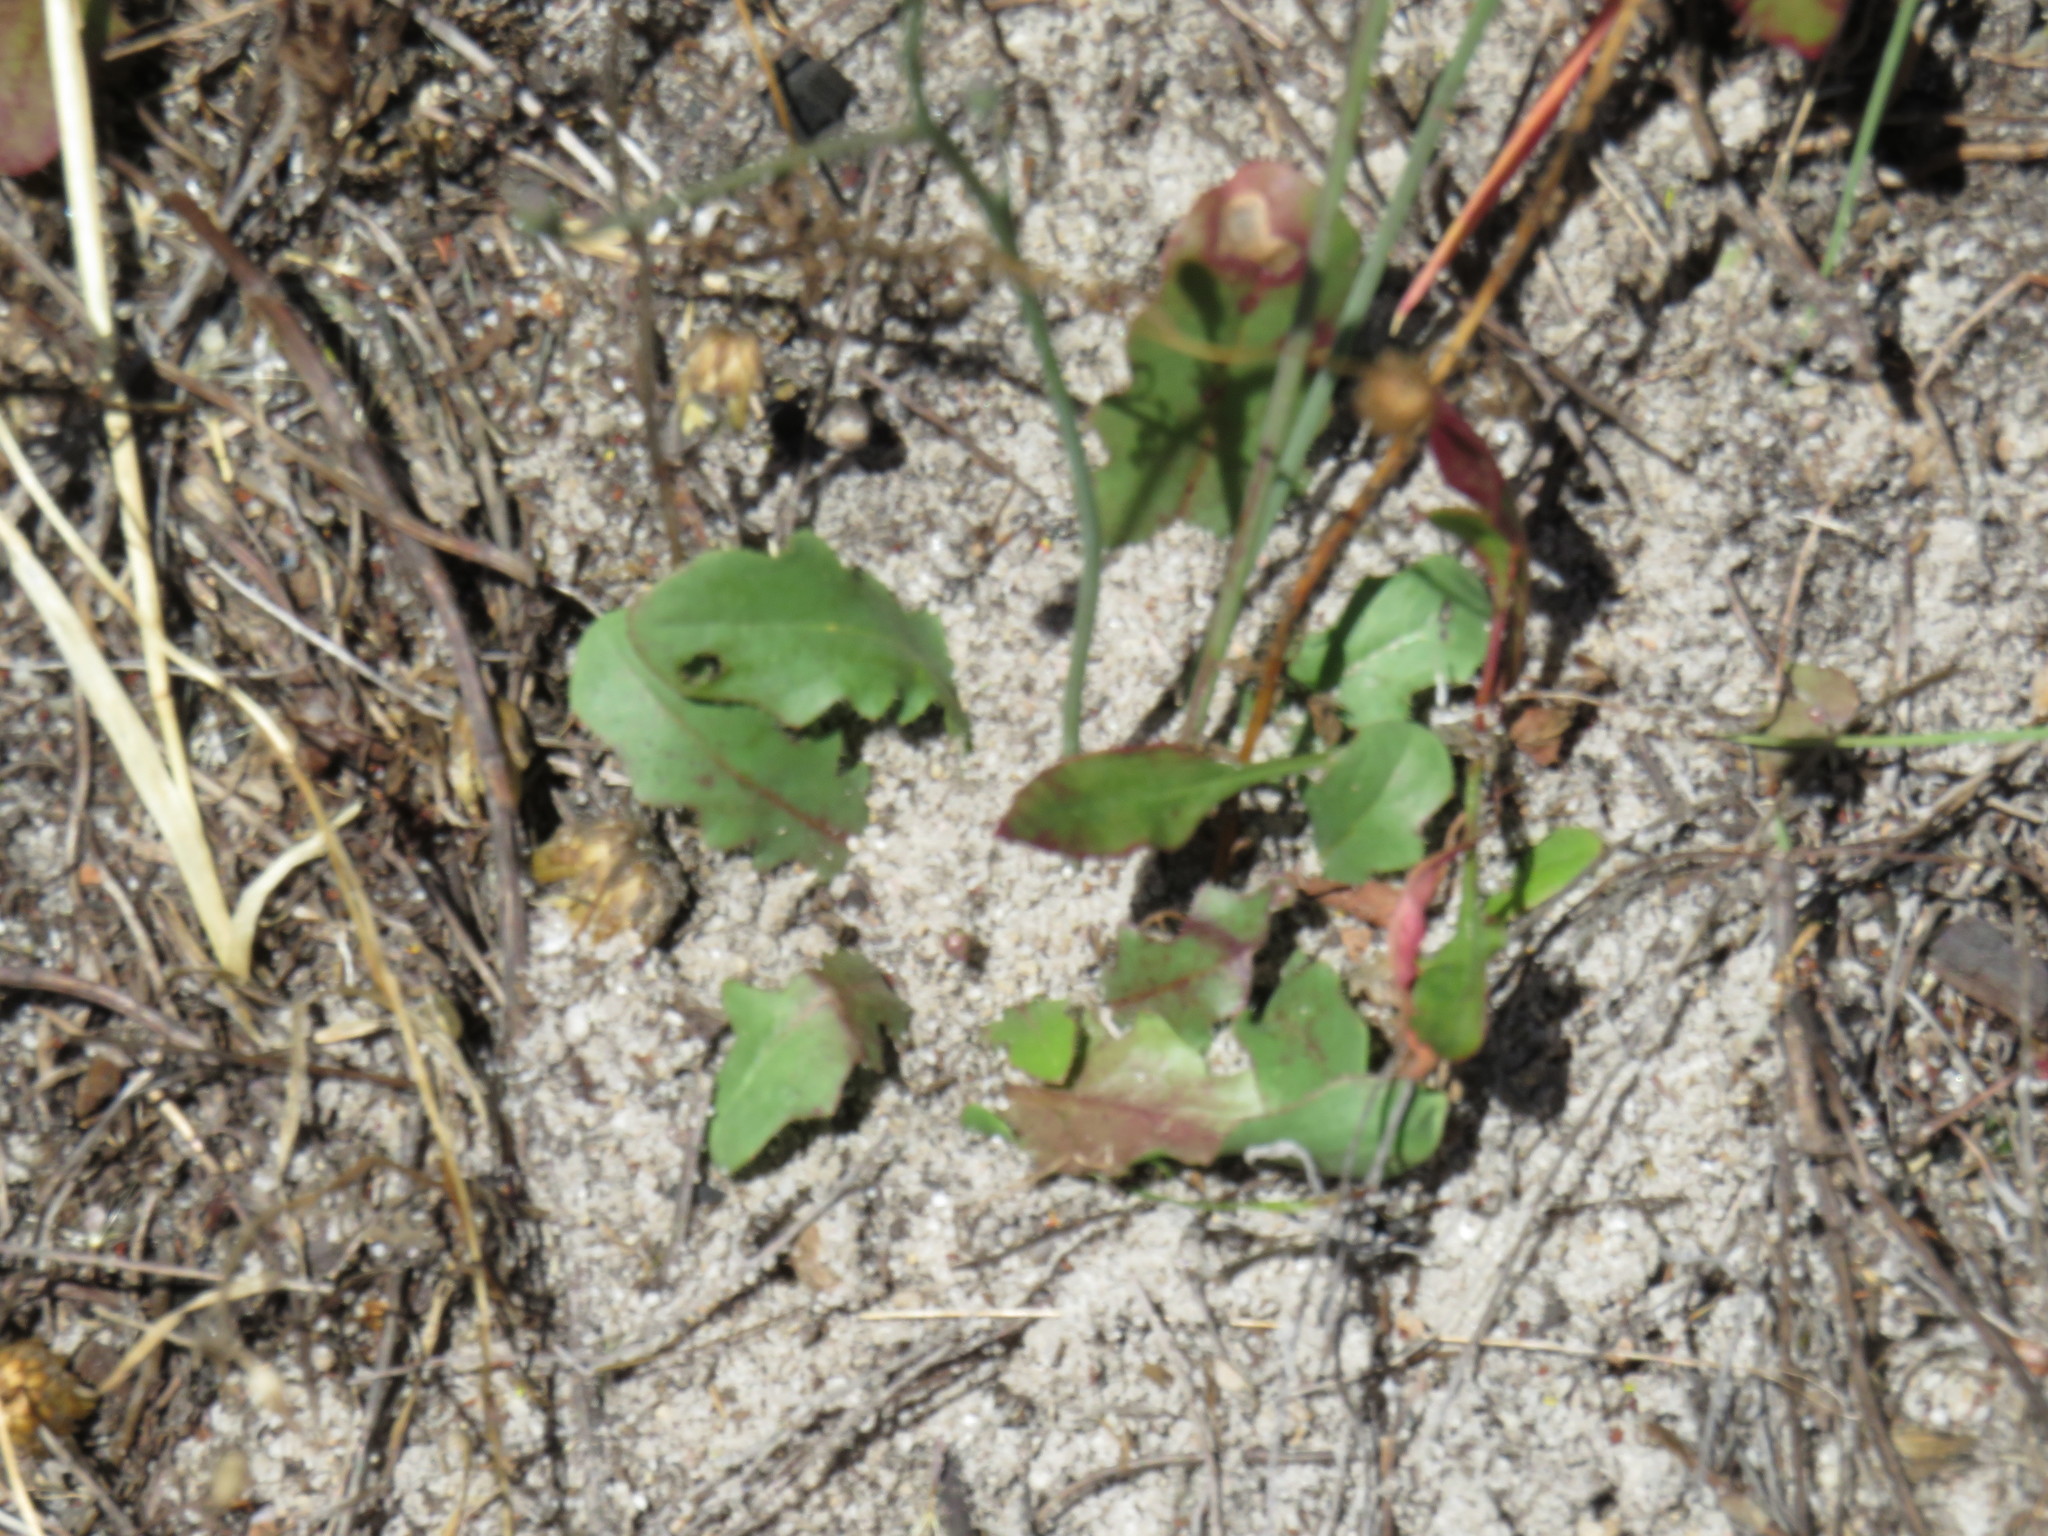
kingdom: Plantae
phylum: Tracheophyta
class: Magnoliopsida
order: Asterales
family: Asteraceae
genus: Hypochaeris
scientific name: Hypochaeris glabra
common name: Smooth catsear
